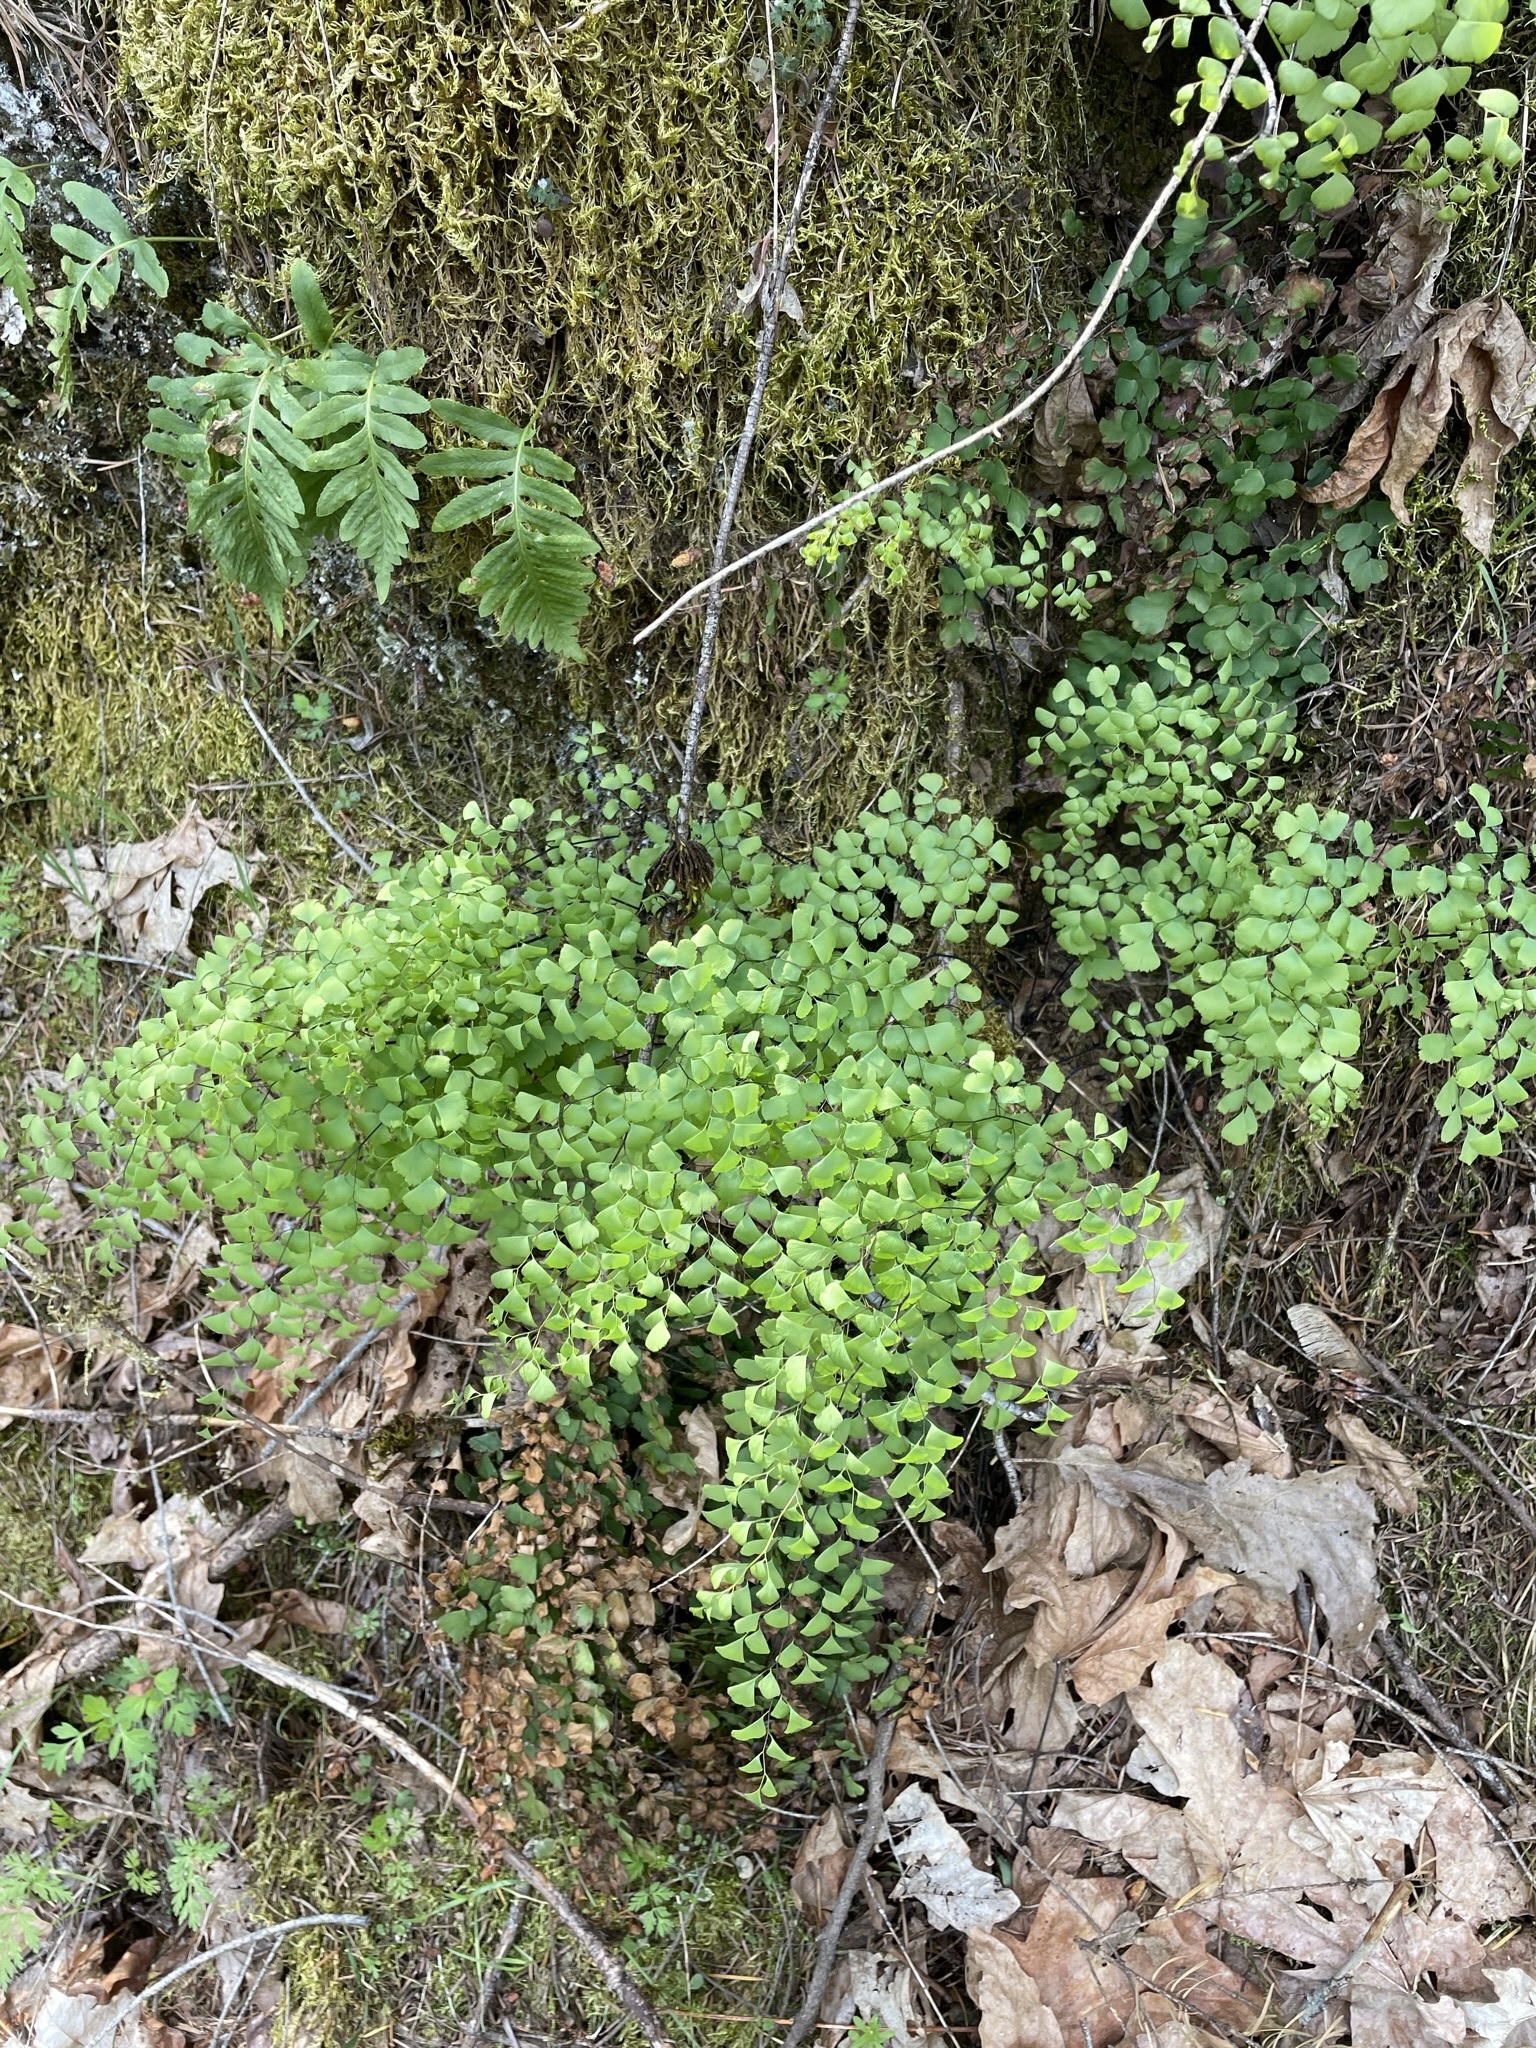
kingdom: Plantae
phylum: Tracheophyta
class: Polypodiopsida
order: Polypodiales
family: Pteridaceae
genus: Adiantum
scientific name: Adiantum shastense
